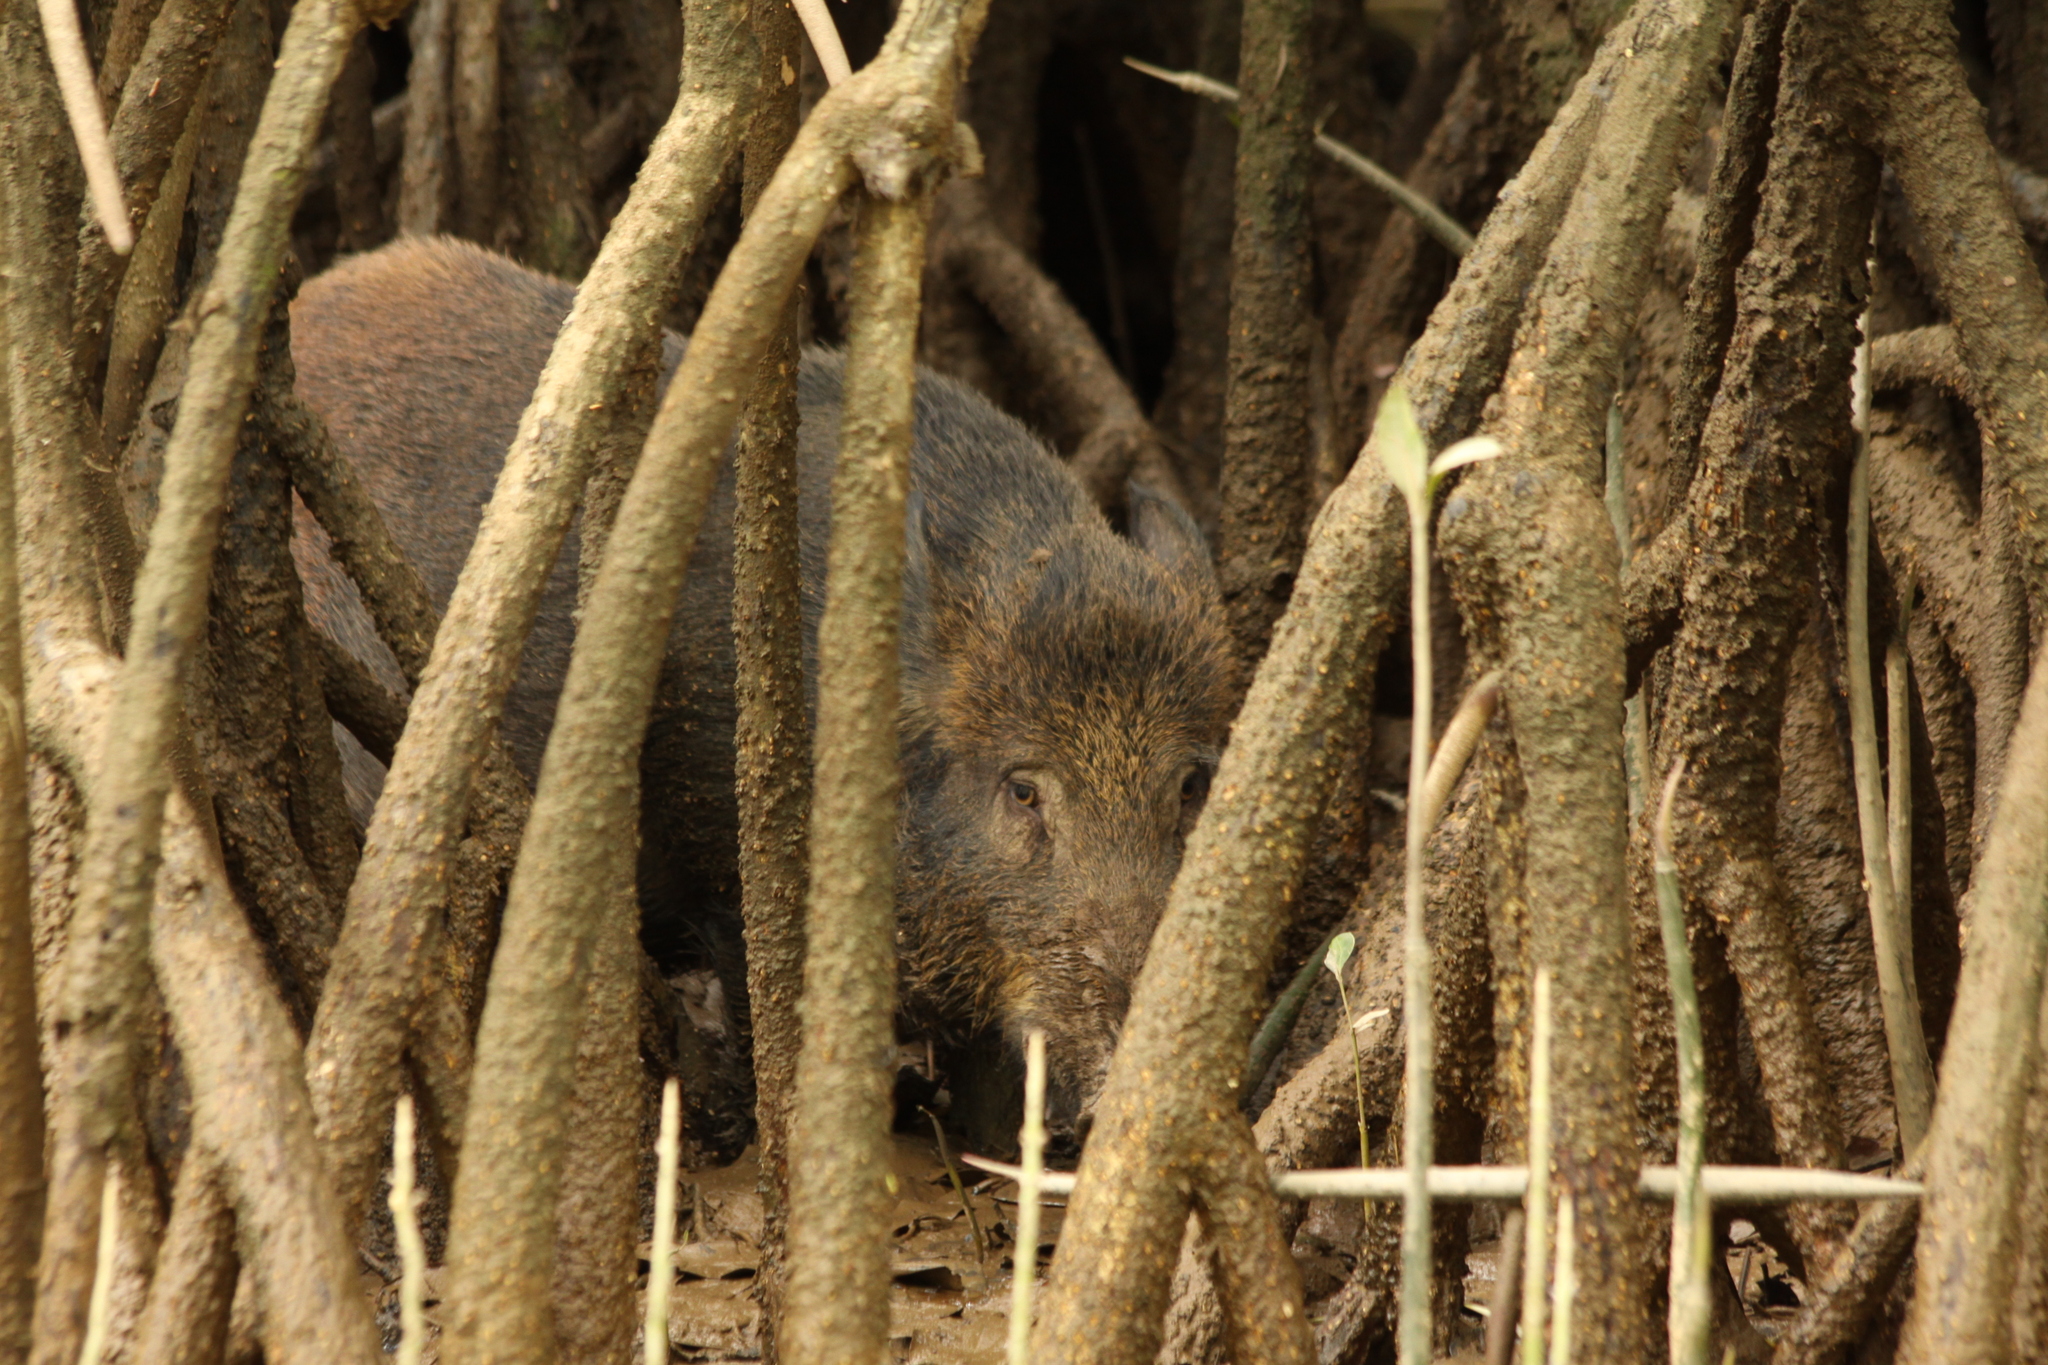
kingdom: Animalia
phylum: Chordata
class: Mammalia
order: Artiodactyla
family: Suidae
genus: Sus
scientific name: Sus scrofa
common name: Wild boar
